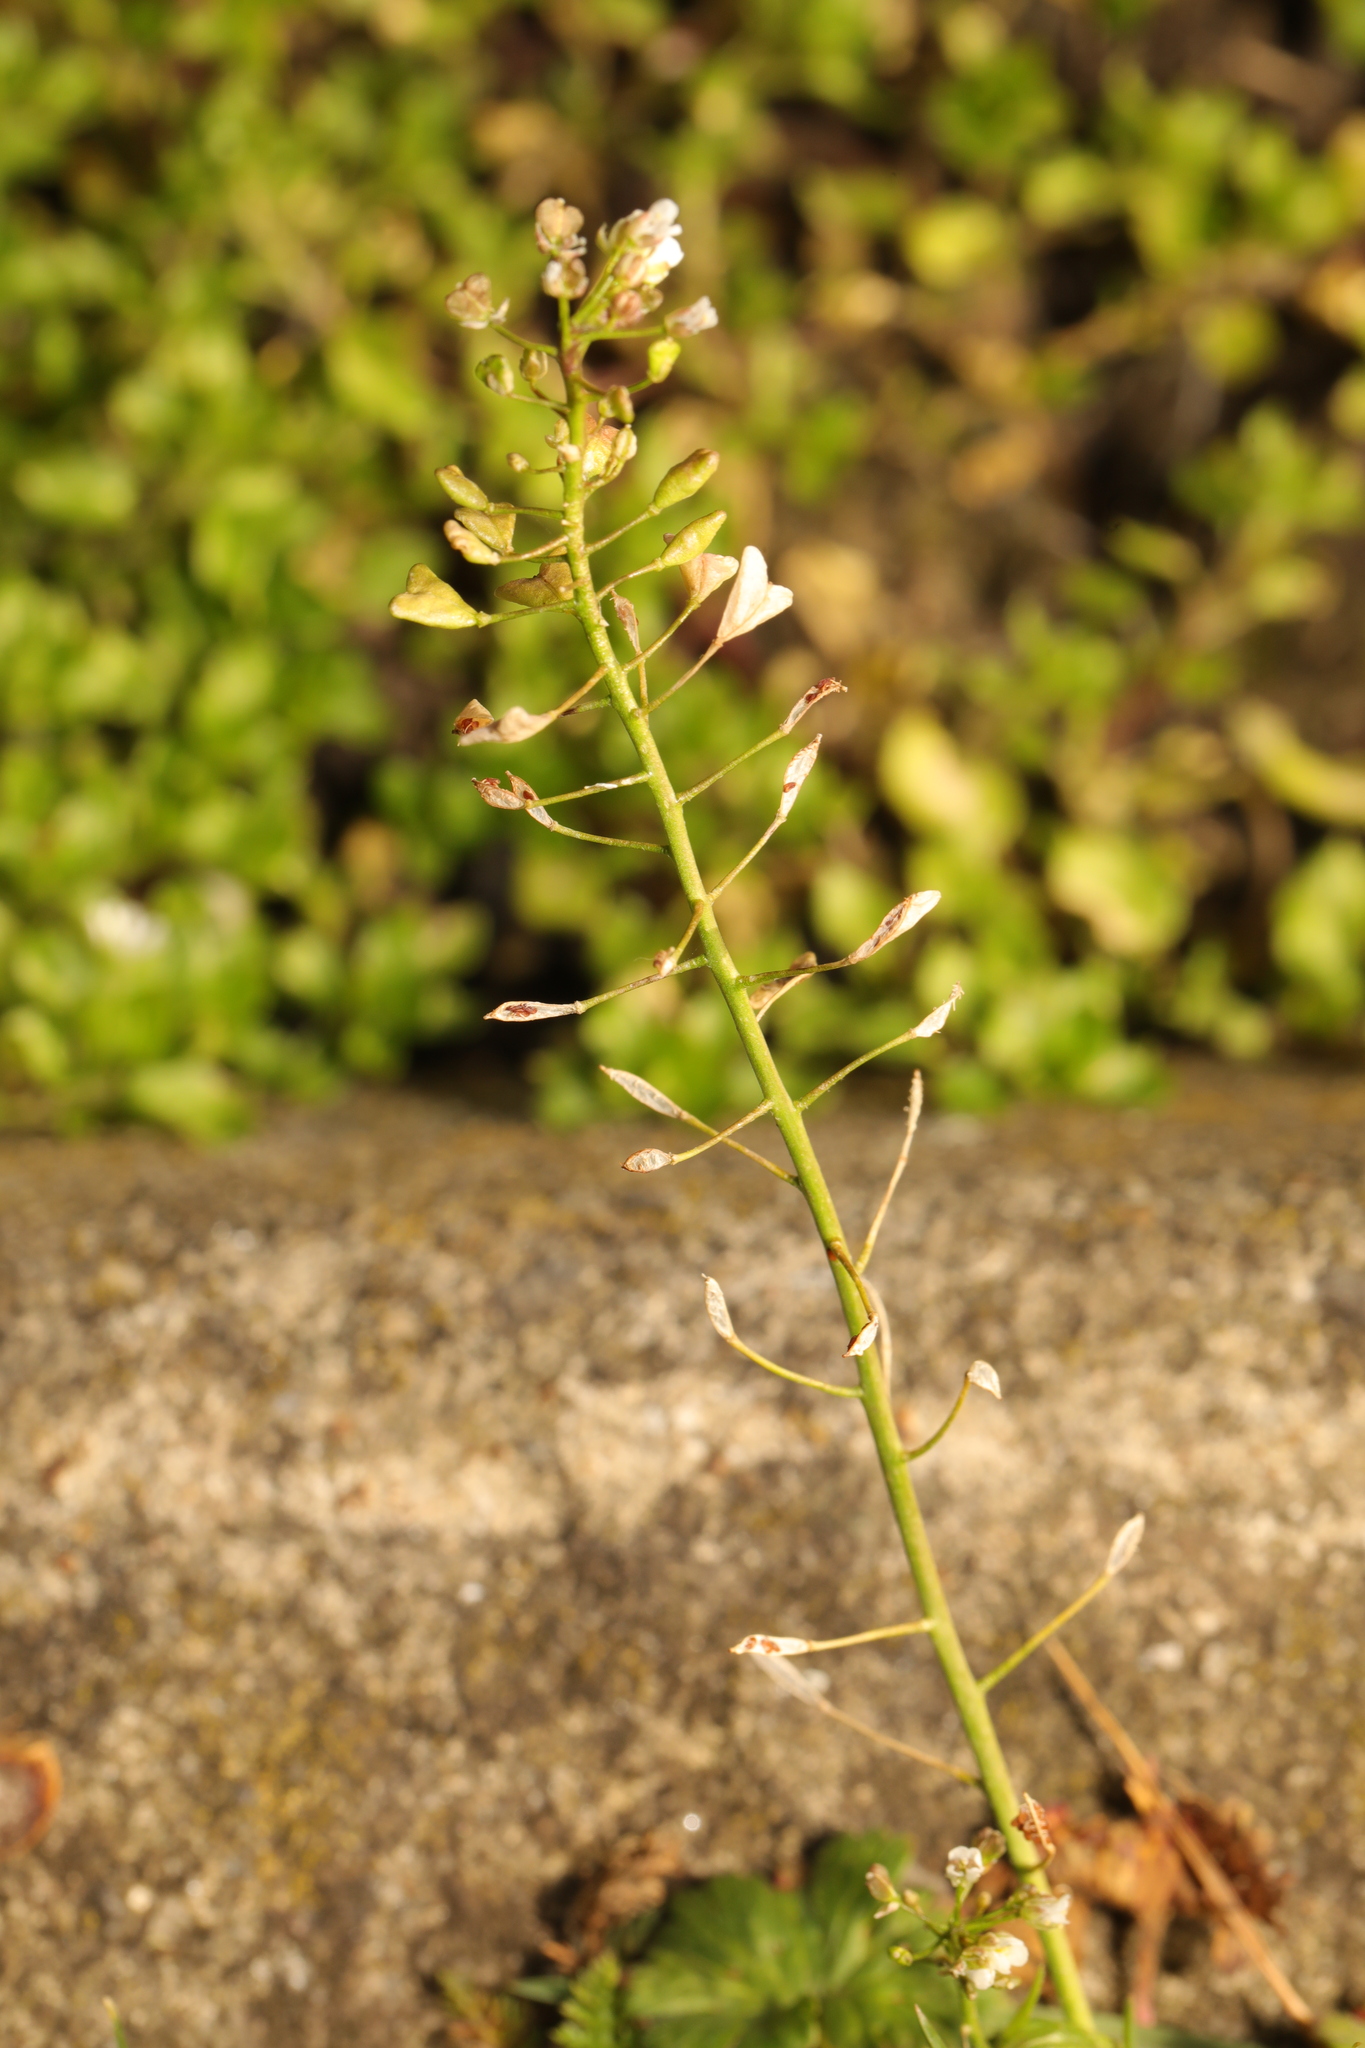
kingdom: Plantae
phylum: Tracheophyta
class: Magnoliopsida
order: Brassicales
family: Brassicaceae
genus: Capsella
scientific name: Capsella bursa-pastoris
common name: Shepherd's purse
